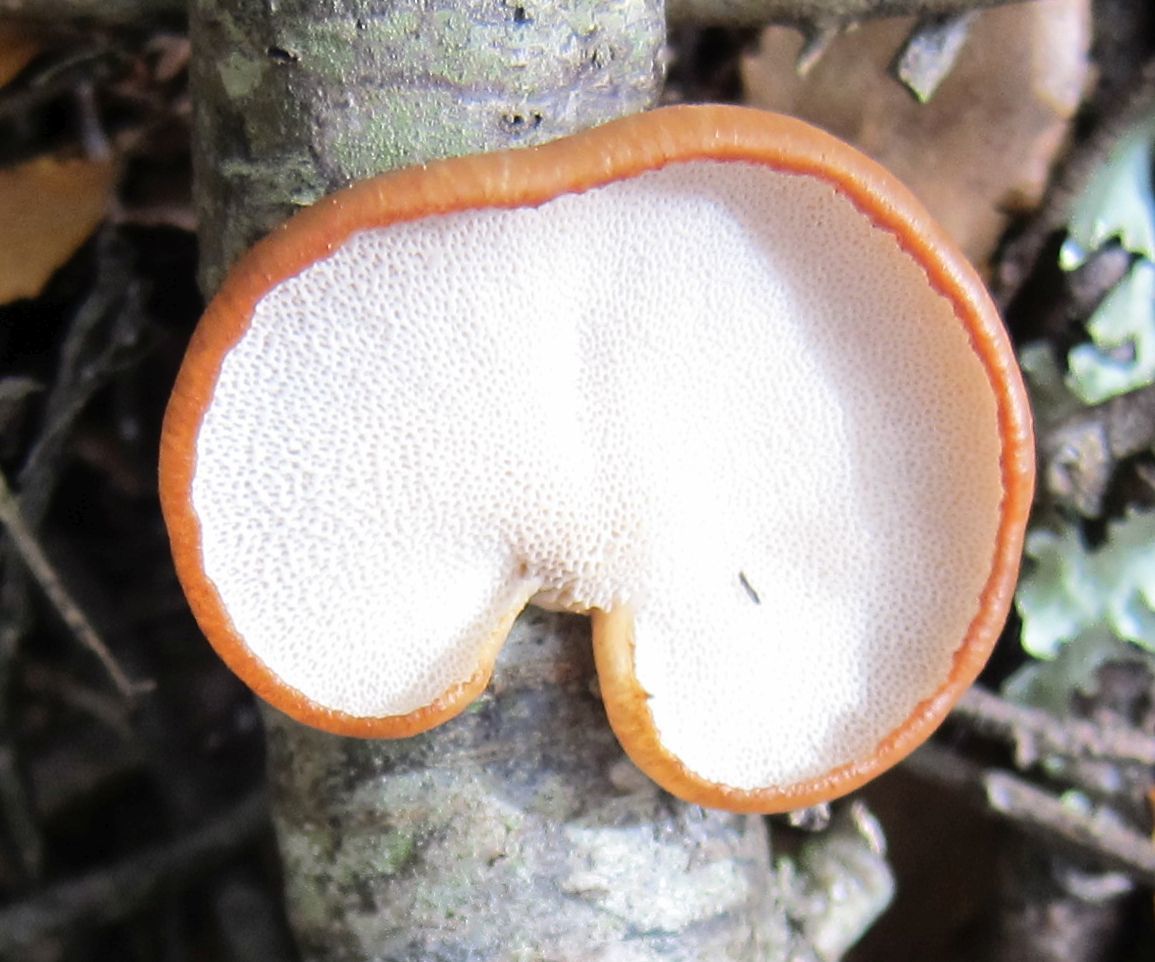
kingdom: Fungi
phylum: Basidiomycota
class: Agaricomycetes
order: Polyporales
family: Polyporaceae
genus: Polyporus
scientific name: Polyporus hypomelanus
